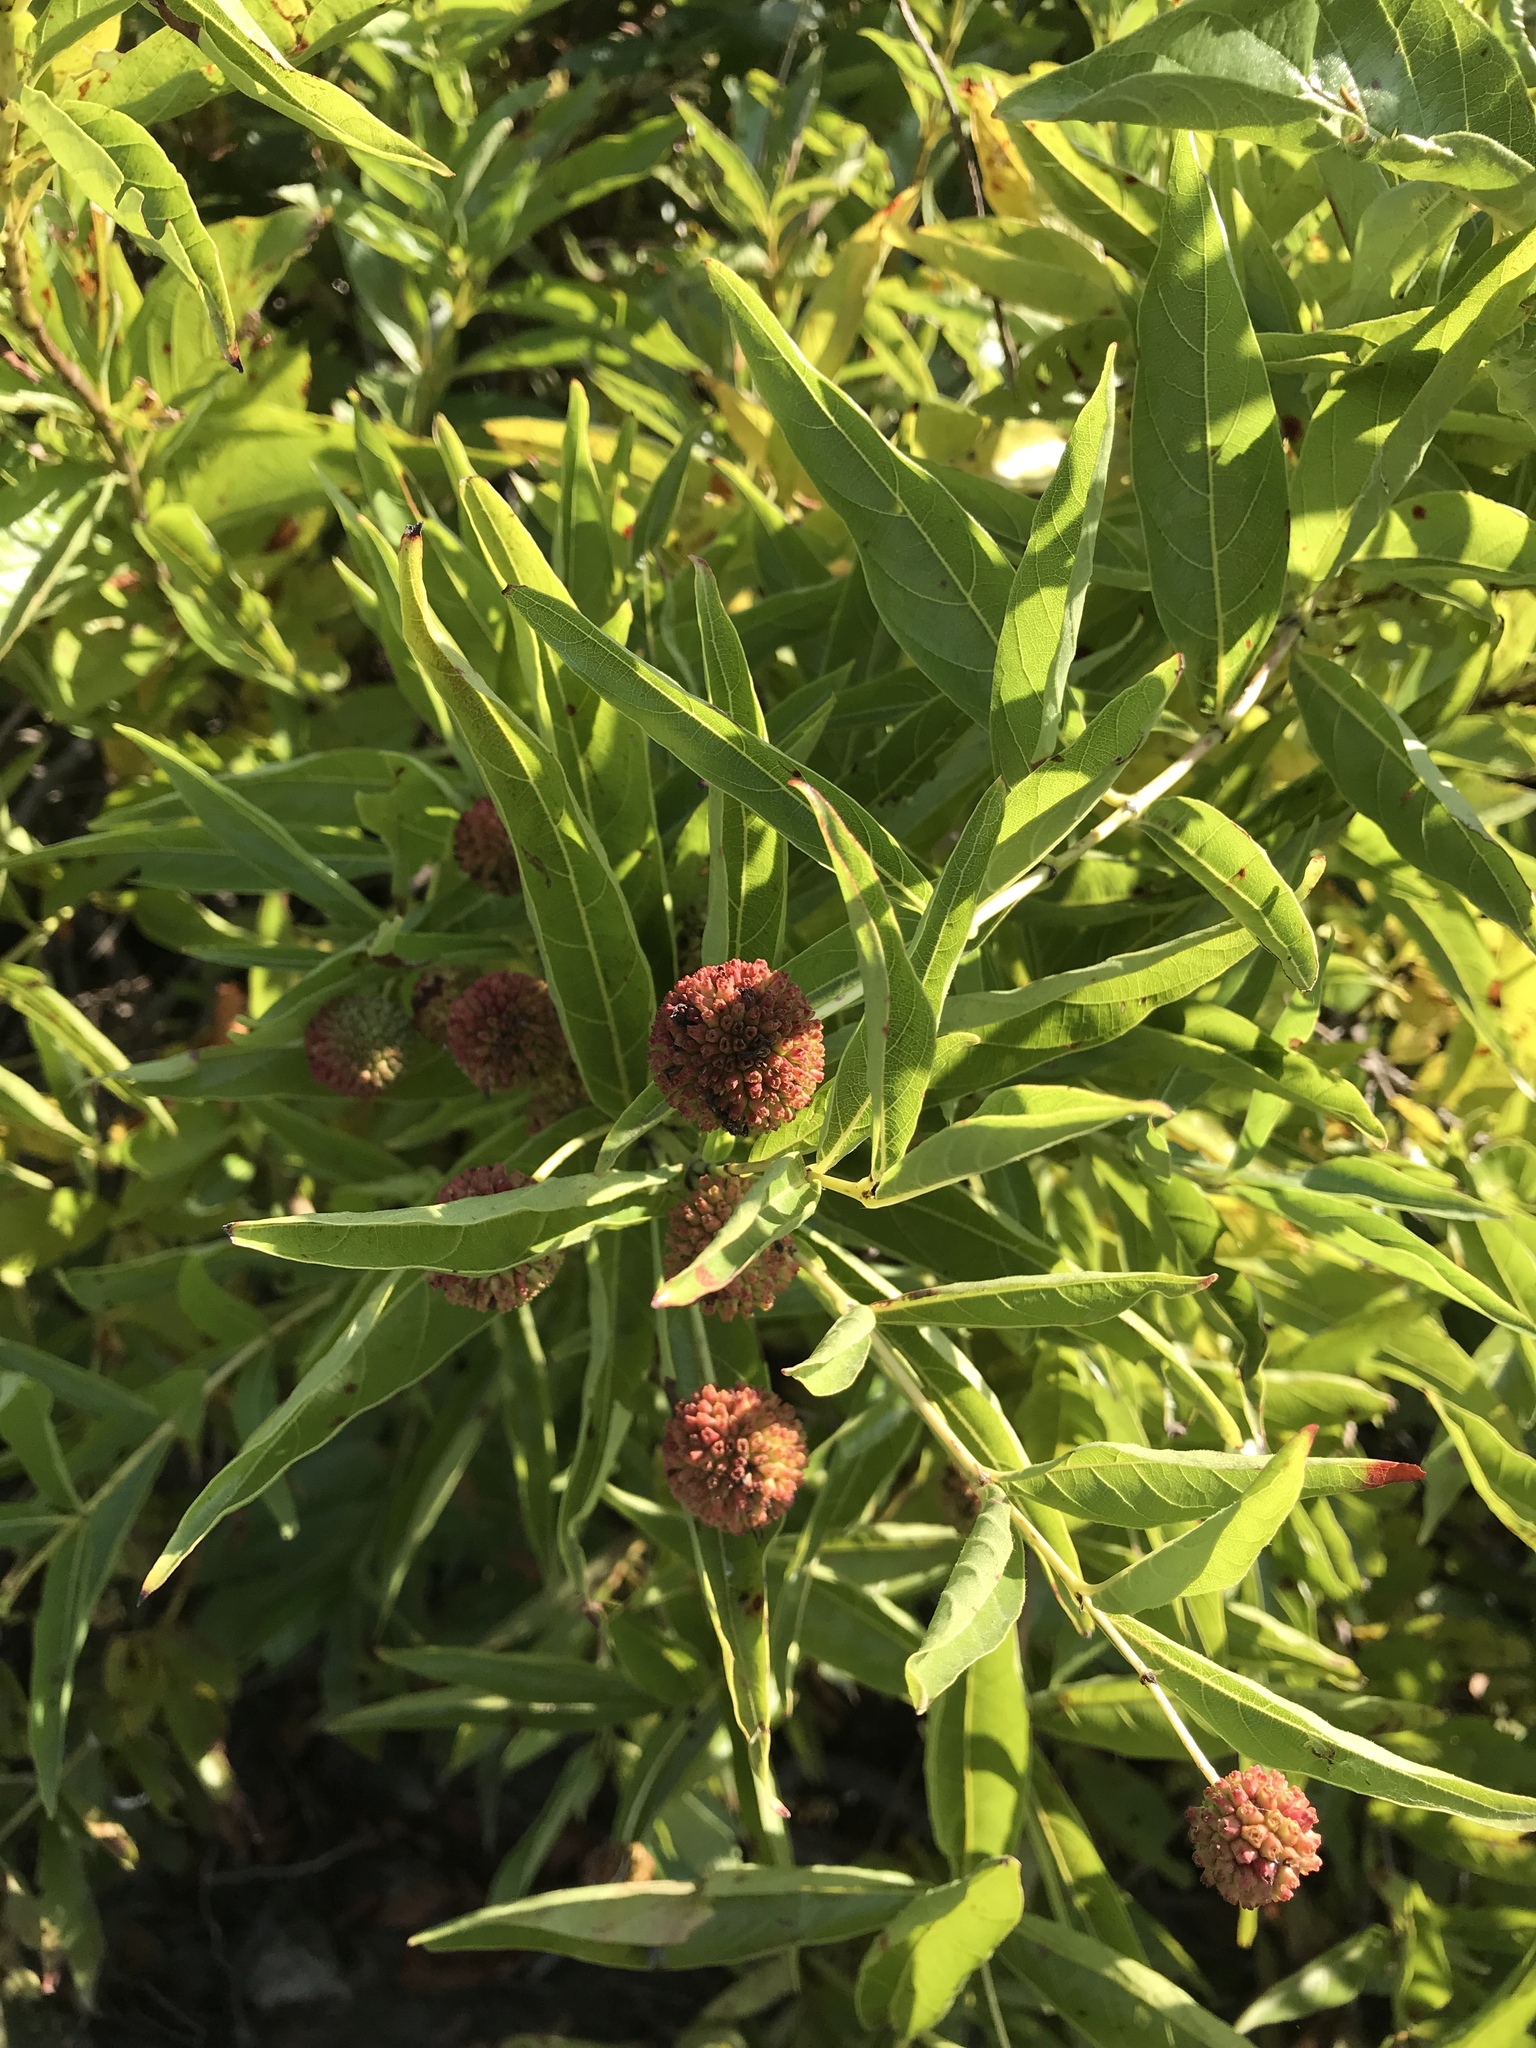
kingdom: Plantae
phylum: Tracheophyta
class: Magnoliopsida
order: Gentianales
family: Rubiaceae
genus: Cephalanthus
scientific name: Cephalanthus occidentalis
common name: Button-willow
